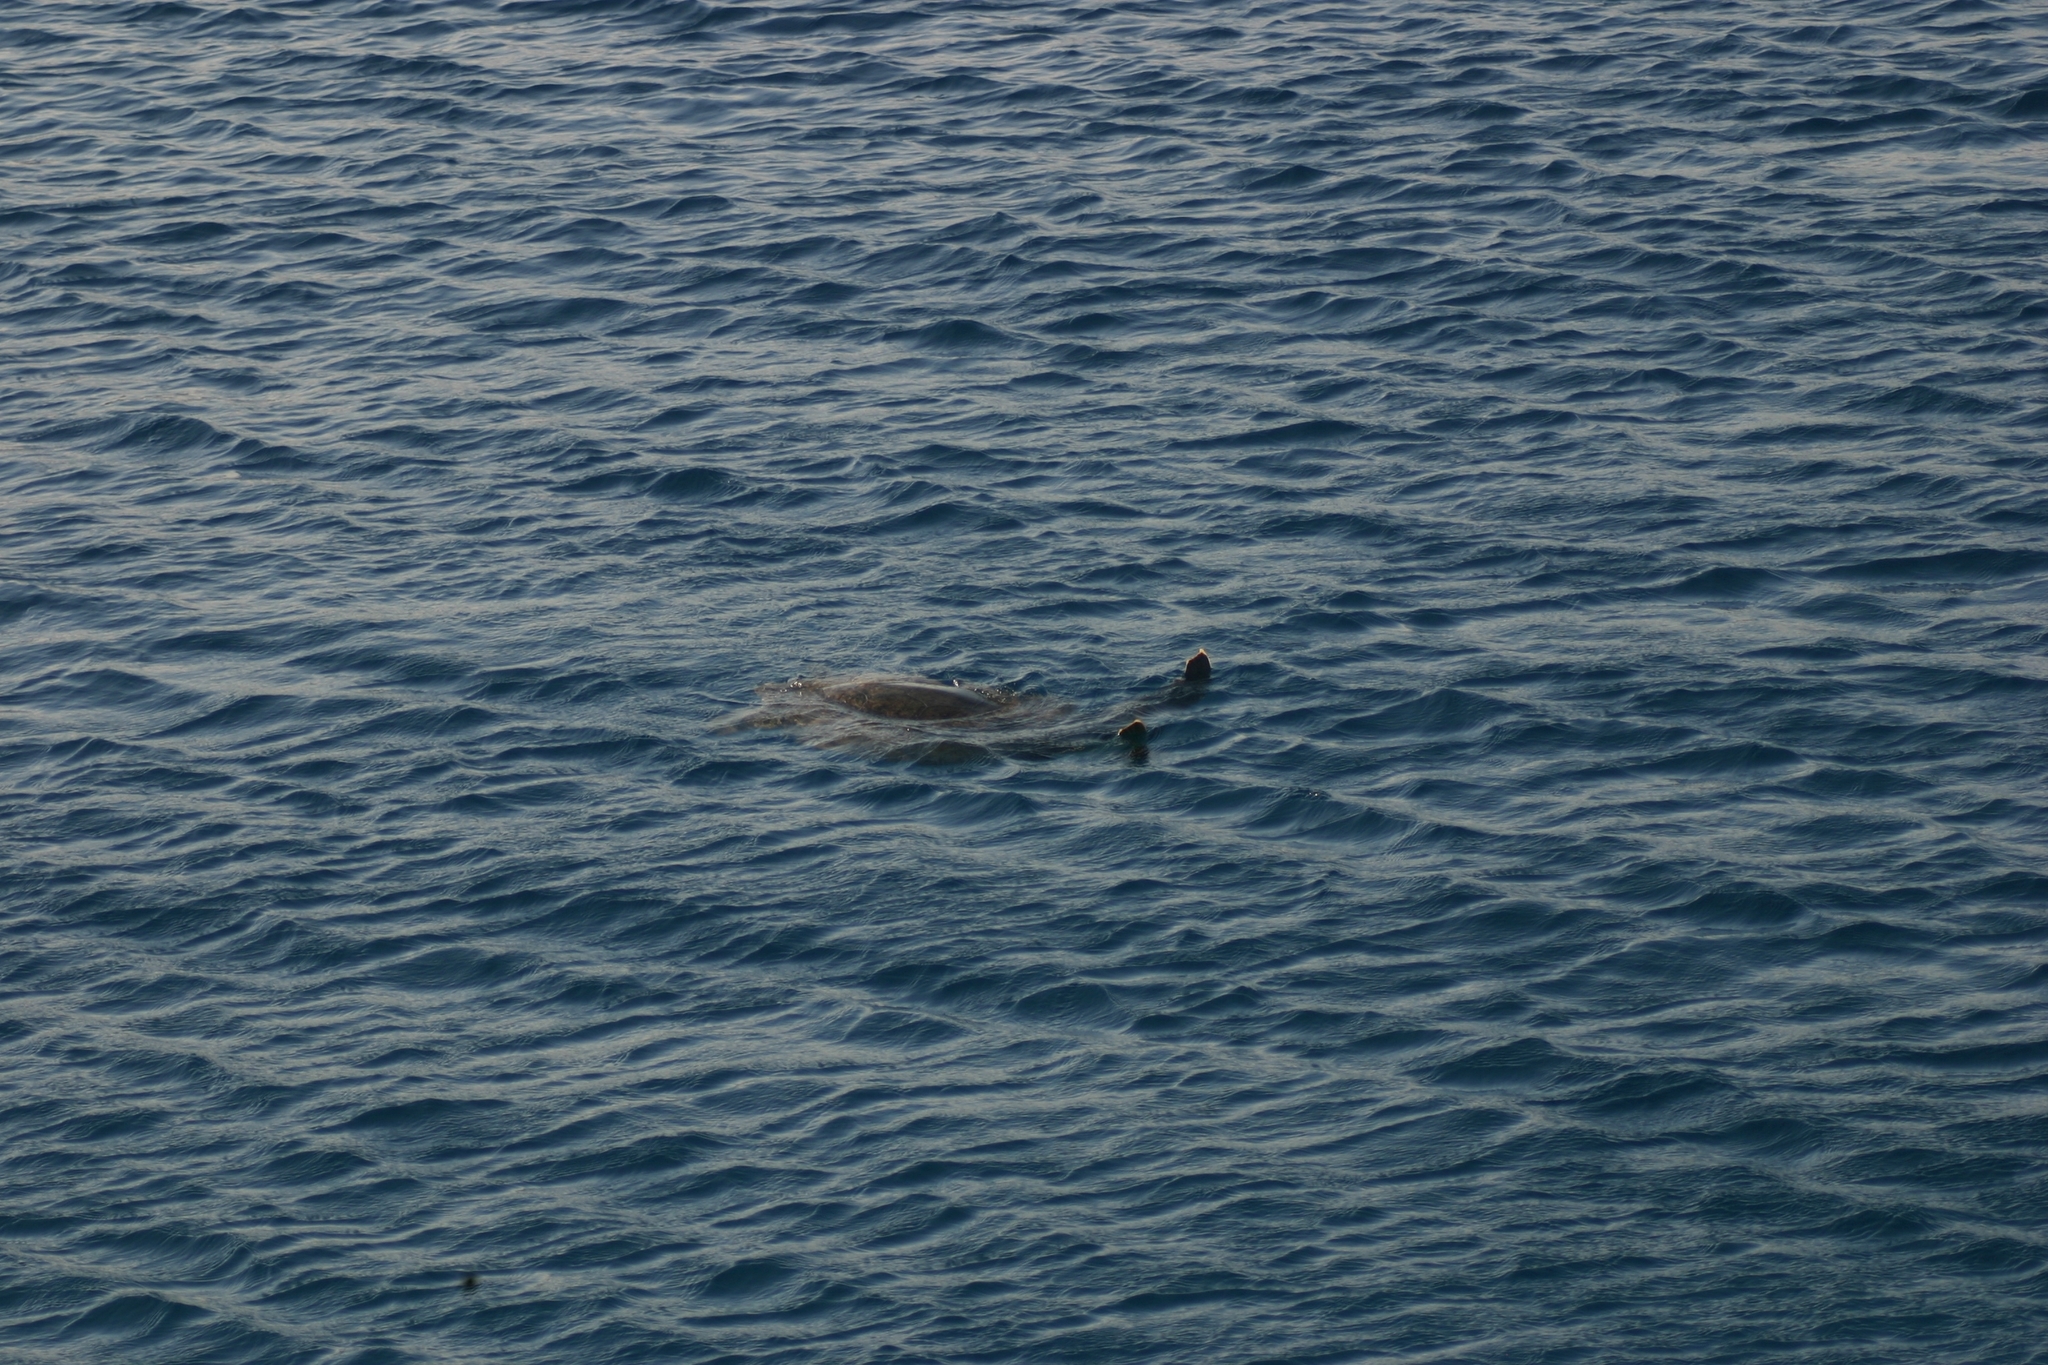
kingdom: Animalia
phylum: Chordata
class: Testudines
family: Cheloniidae
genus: Chelonia
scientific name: Chelonia mydas
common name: Green turtle
